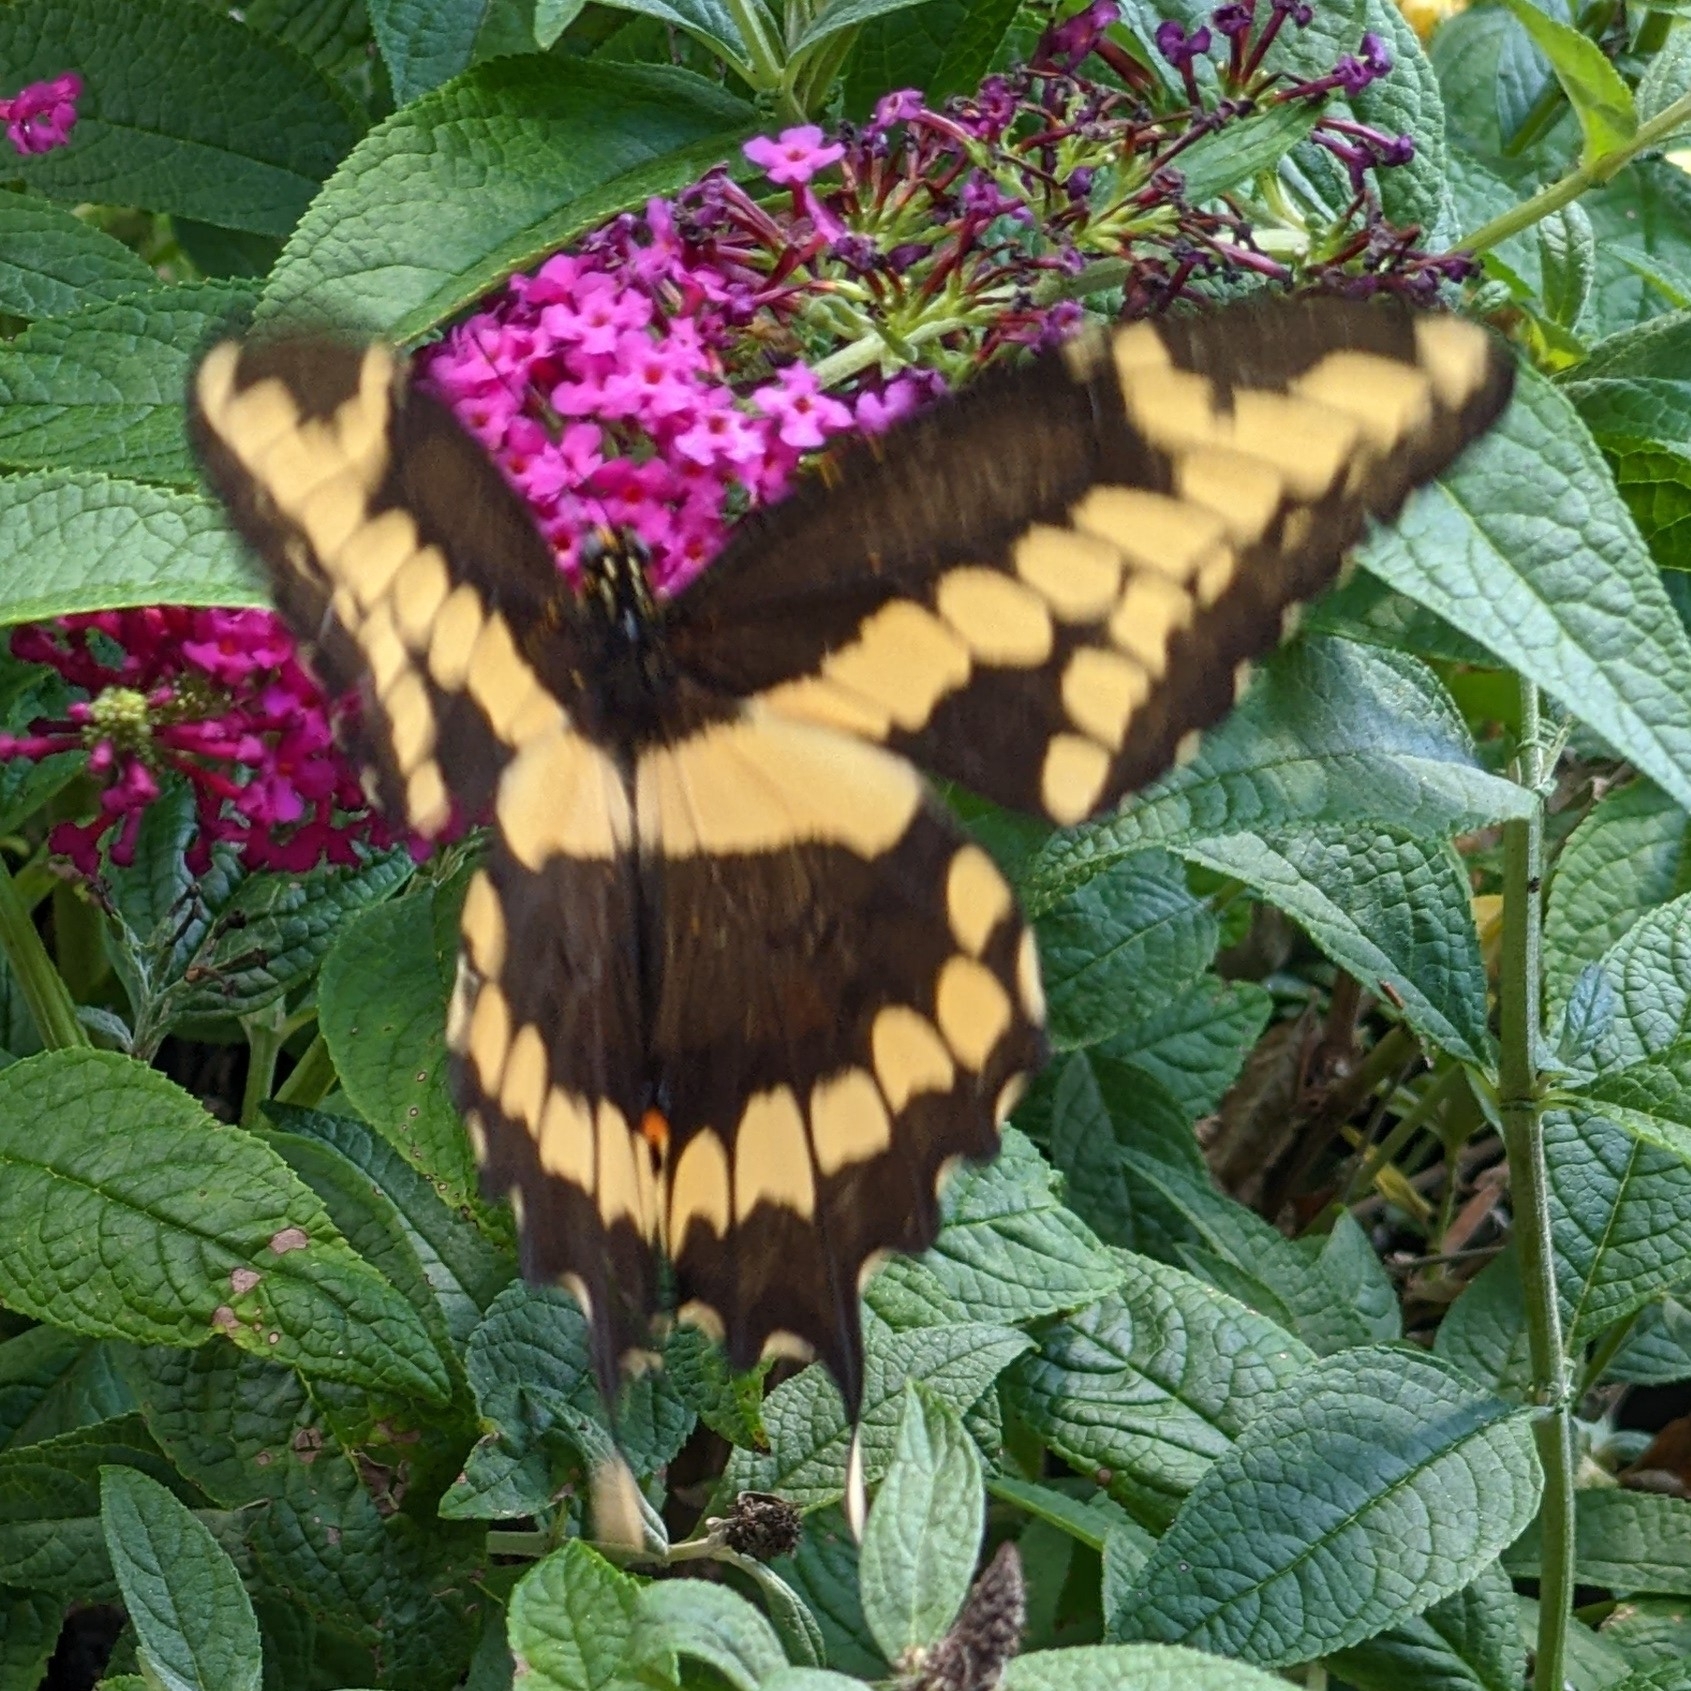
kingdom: Animalia
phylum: Arthropoda
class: Insecta
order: Lepidoptera
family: Papilionidae
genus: Papilio
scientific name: Papilio cresphontes
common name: Giant swallowtail
